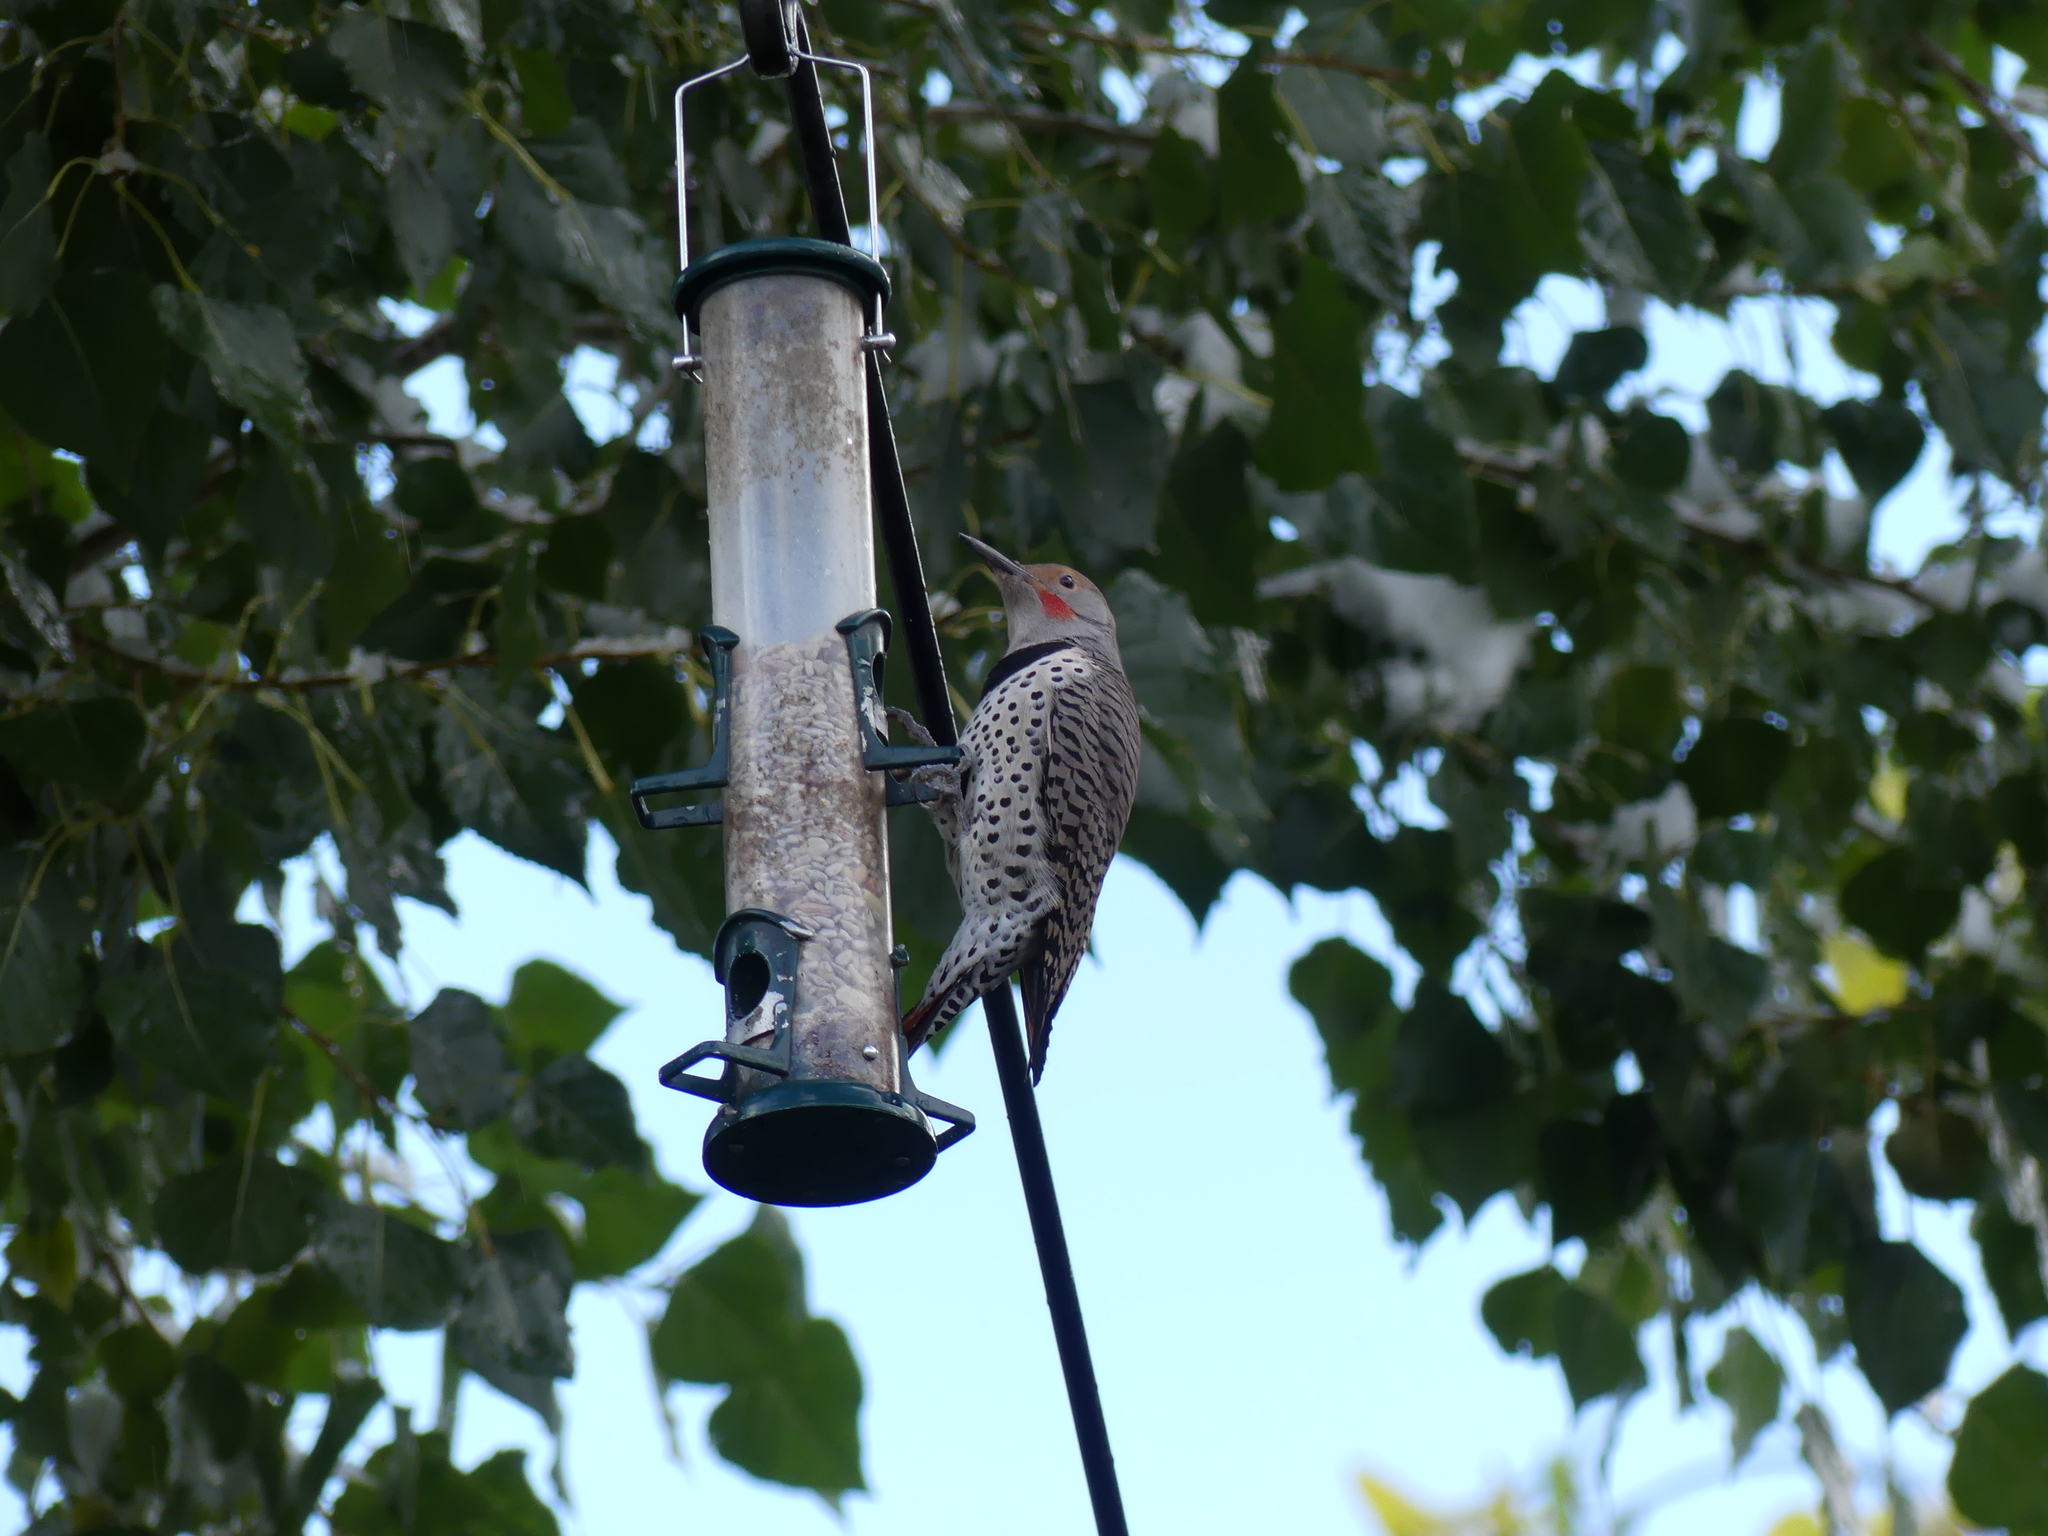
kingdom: Animalia
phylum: Chordata
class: Aves
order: Piciformes
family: Picidae
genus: Colaptes
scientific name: Colaptes auratus
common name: Northern flicker
